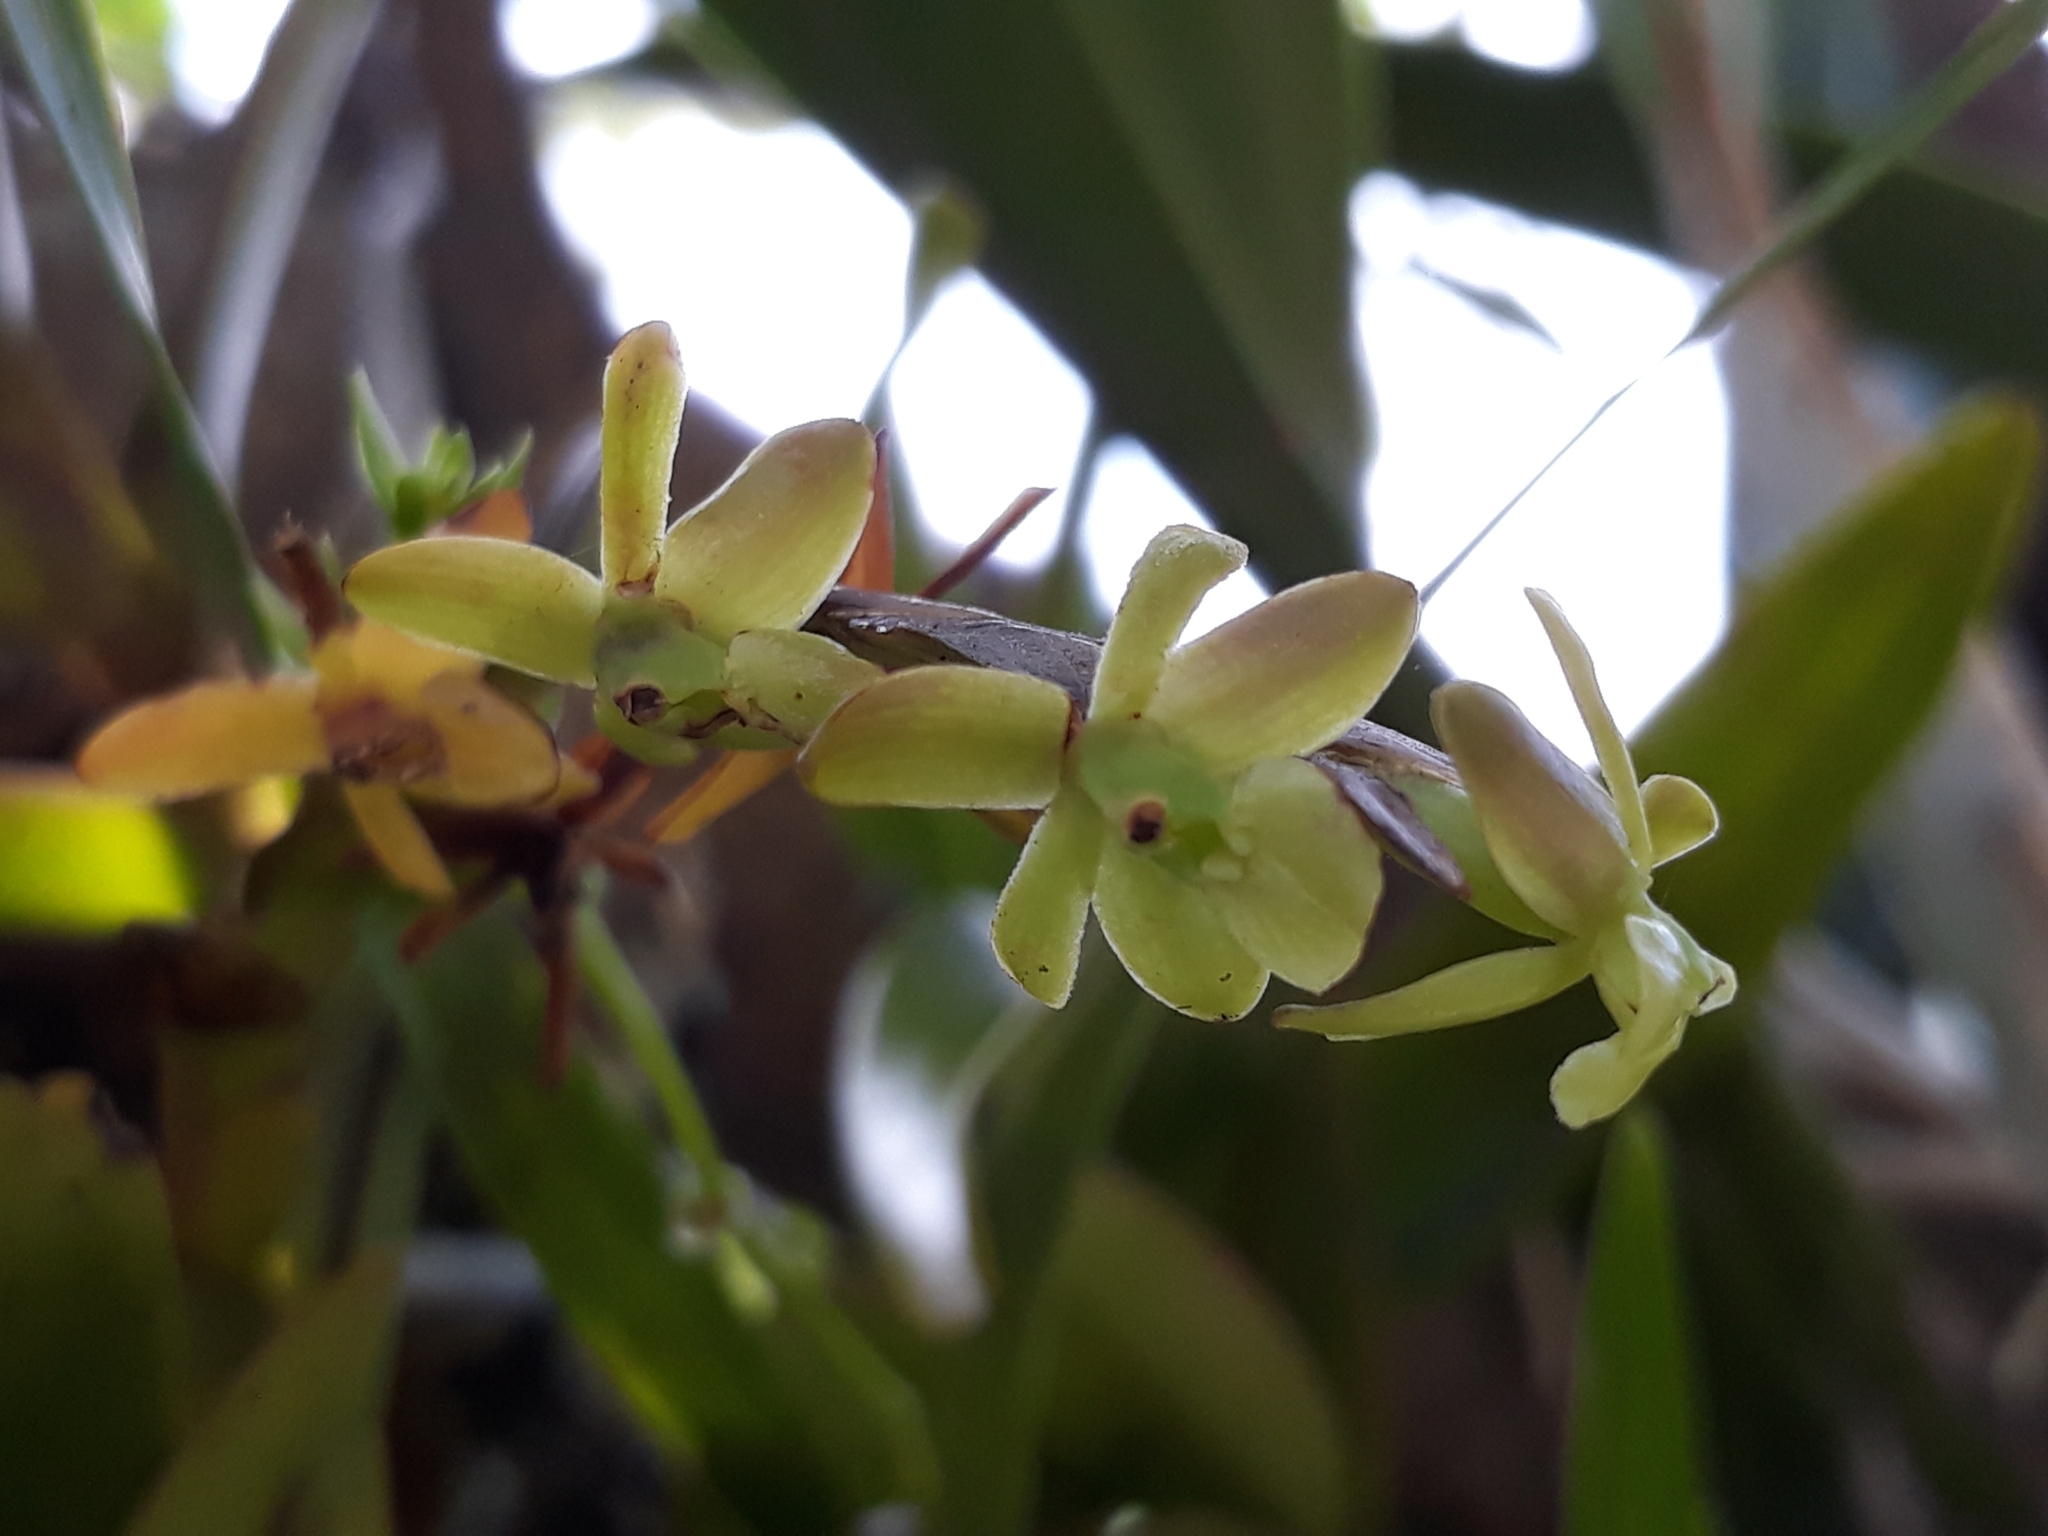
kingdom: Plantae
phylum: Tracheophyta
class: Liliopsida
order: Asparagales
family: Orchidaceae
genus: Epidendrum
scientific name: Epidendrum cardiophorum
